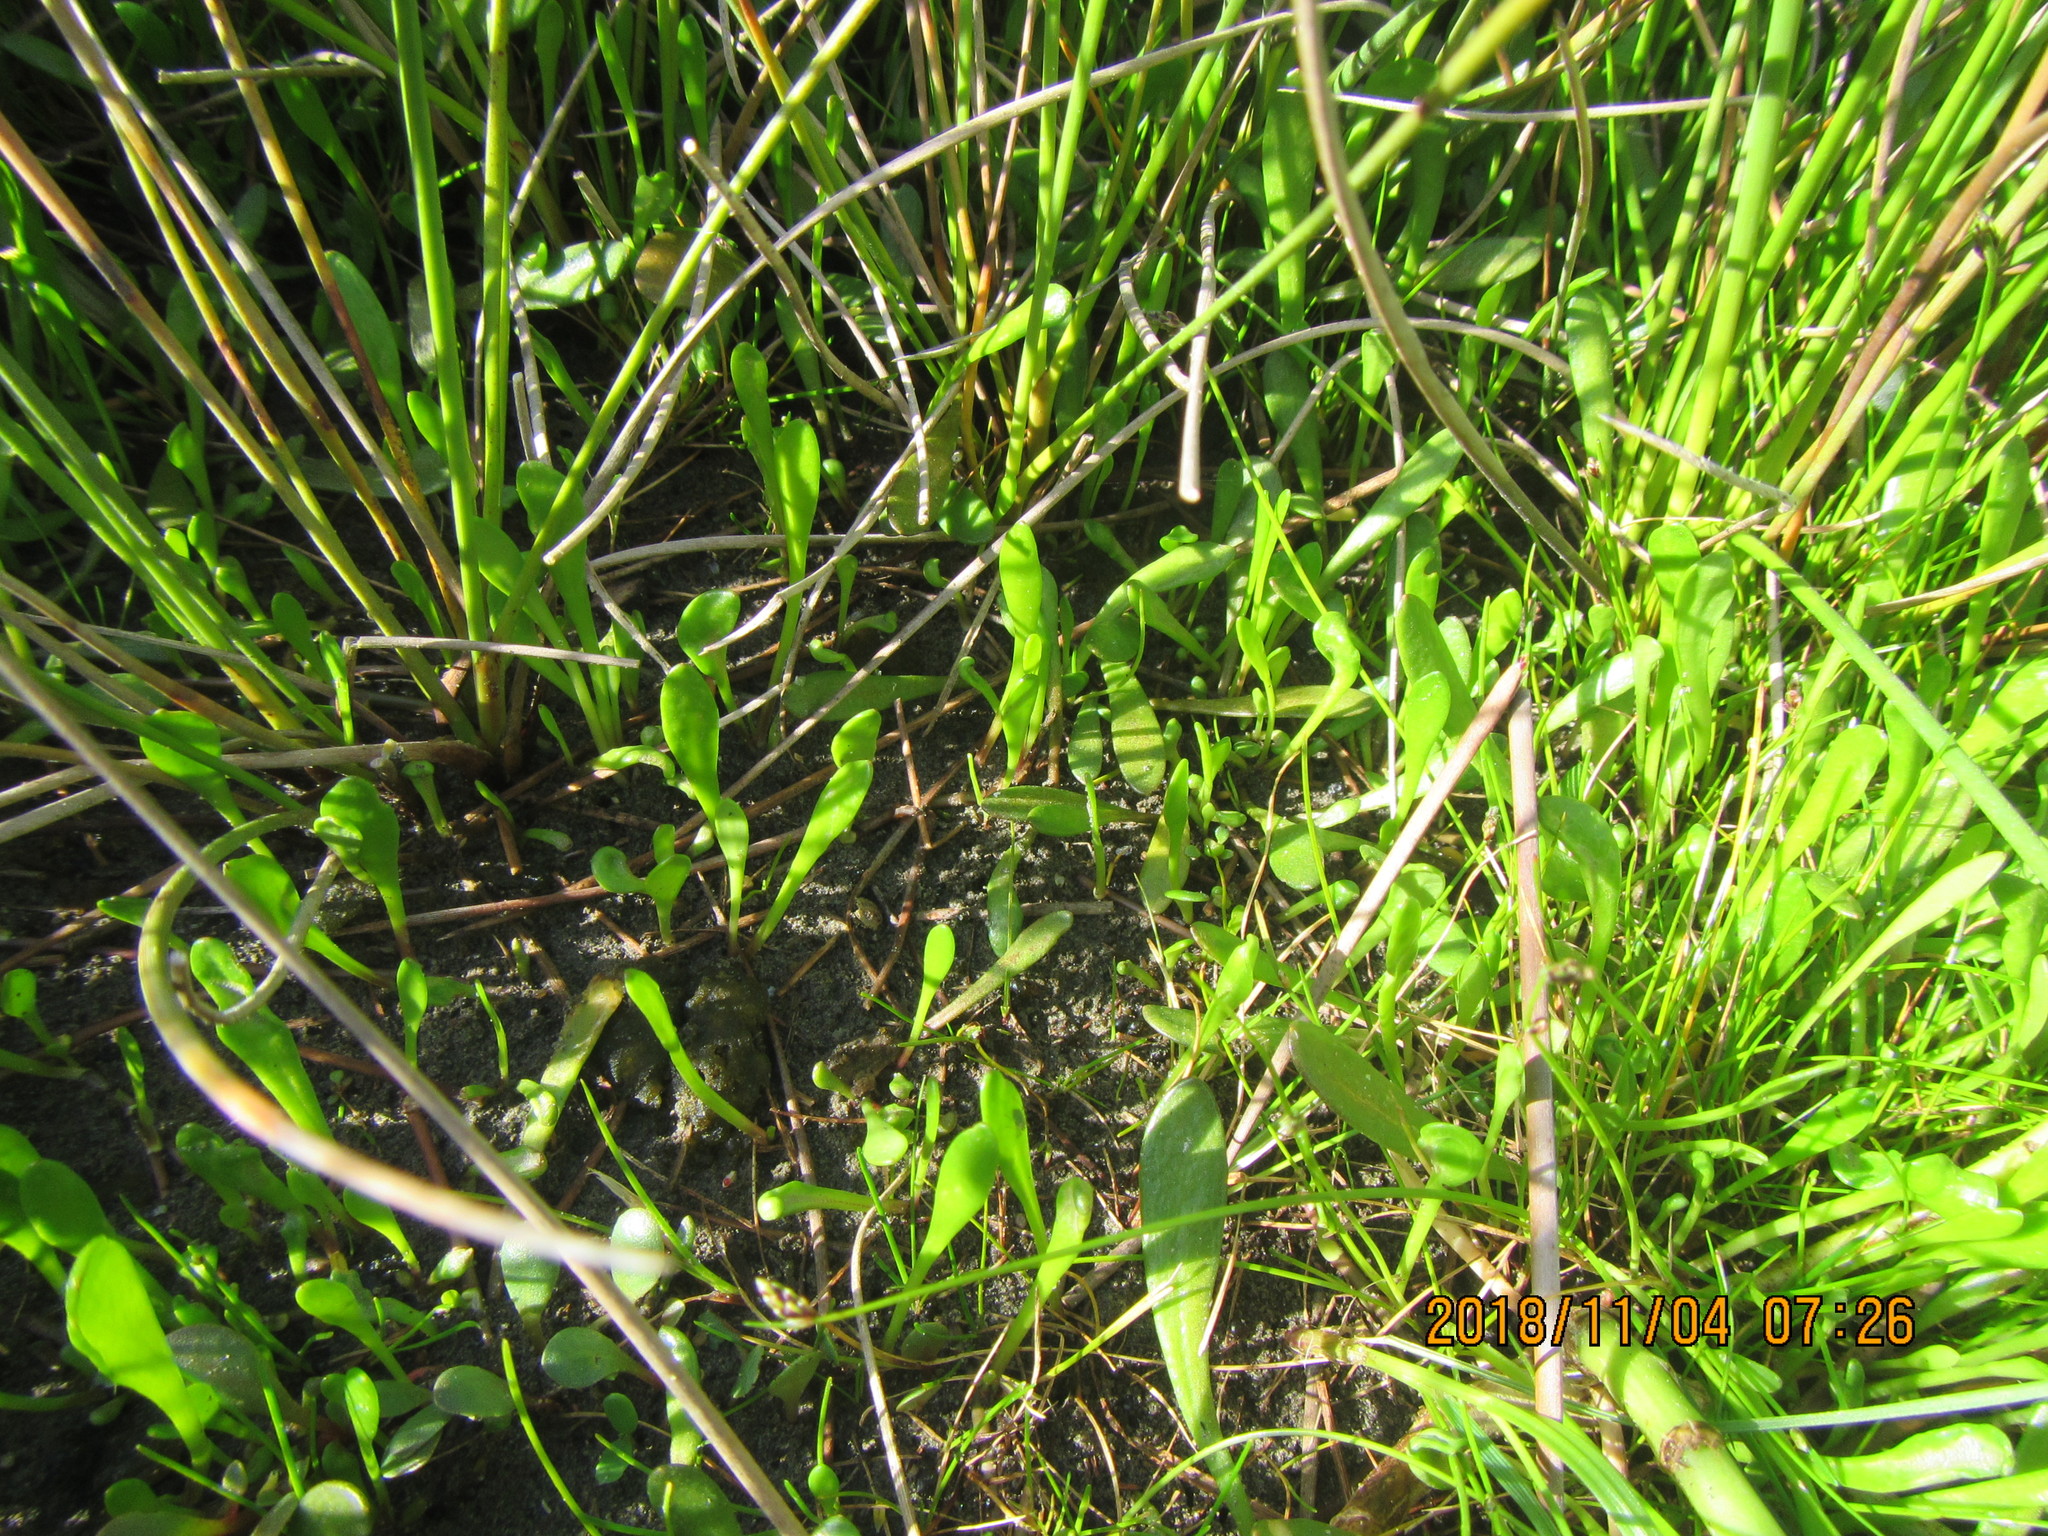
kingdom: Plantae
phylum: Tracheophyta
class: Magnoliopsida
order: Asterales
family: Goodeniaceae
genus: Goodenia
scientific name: Goodenia radicans
